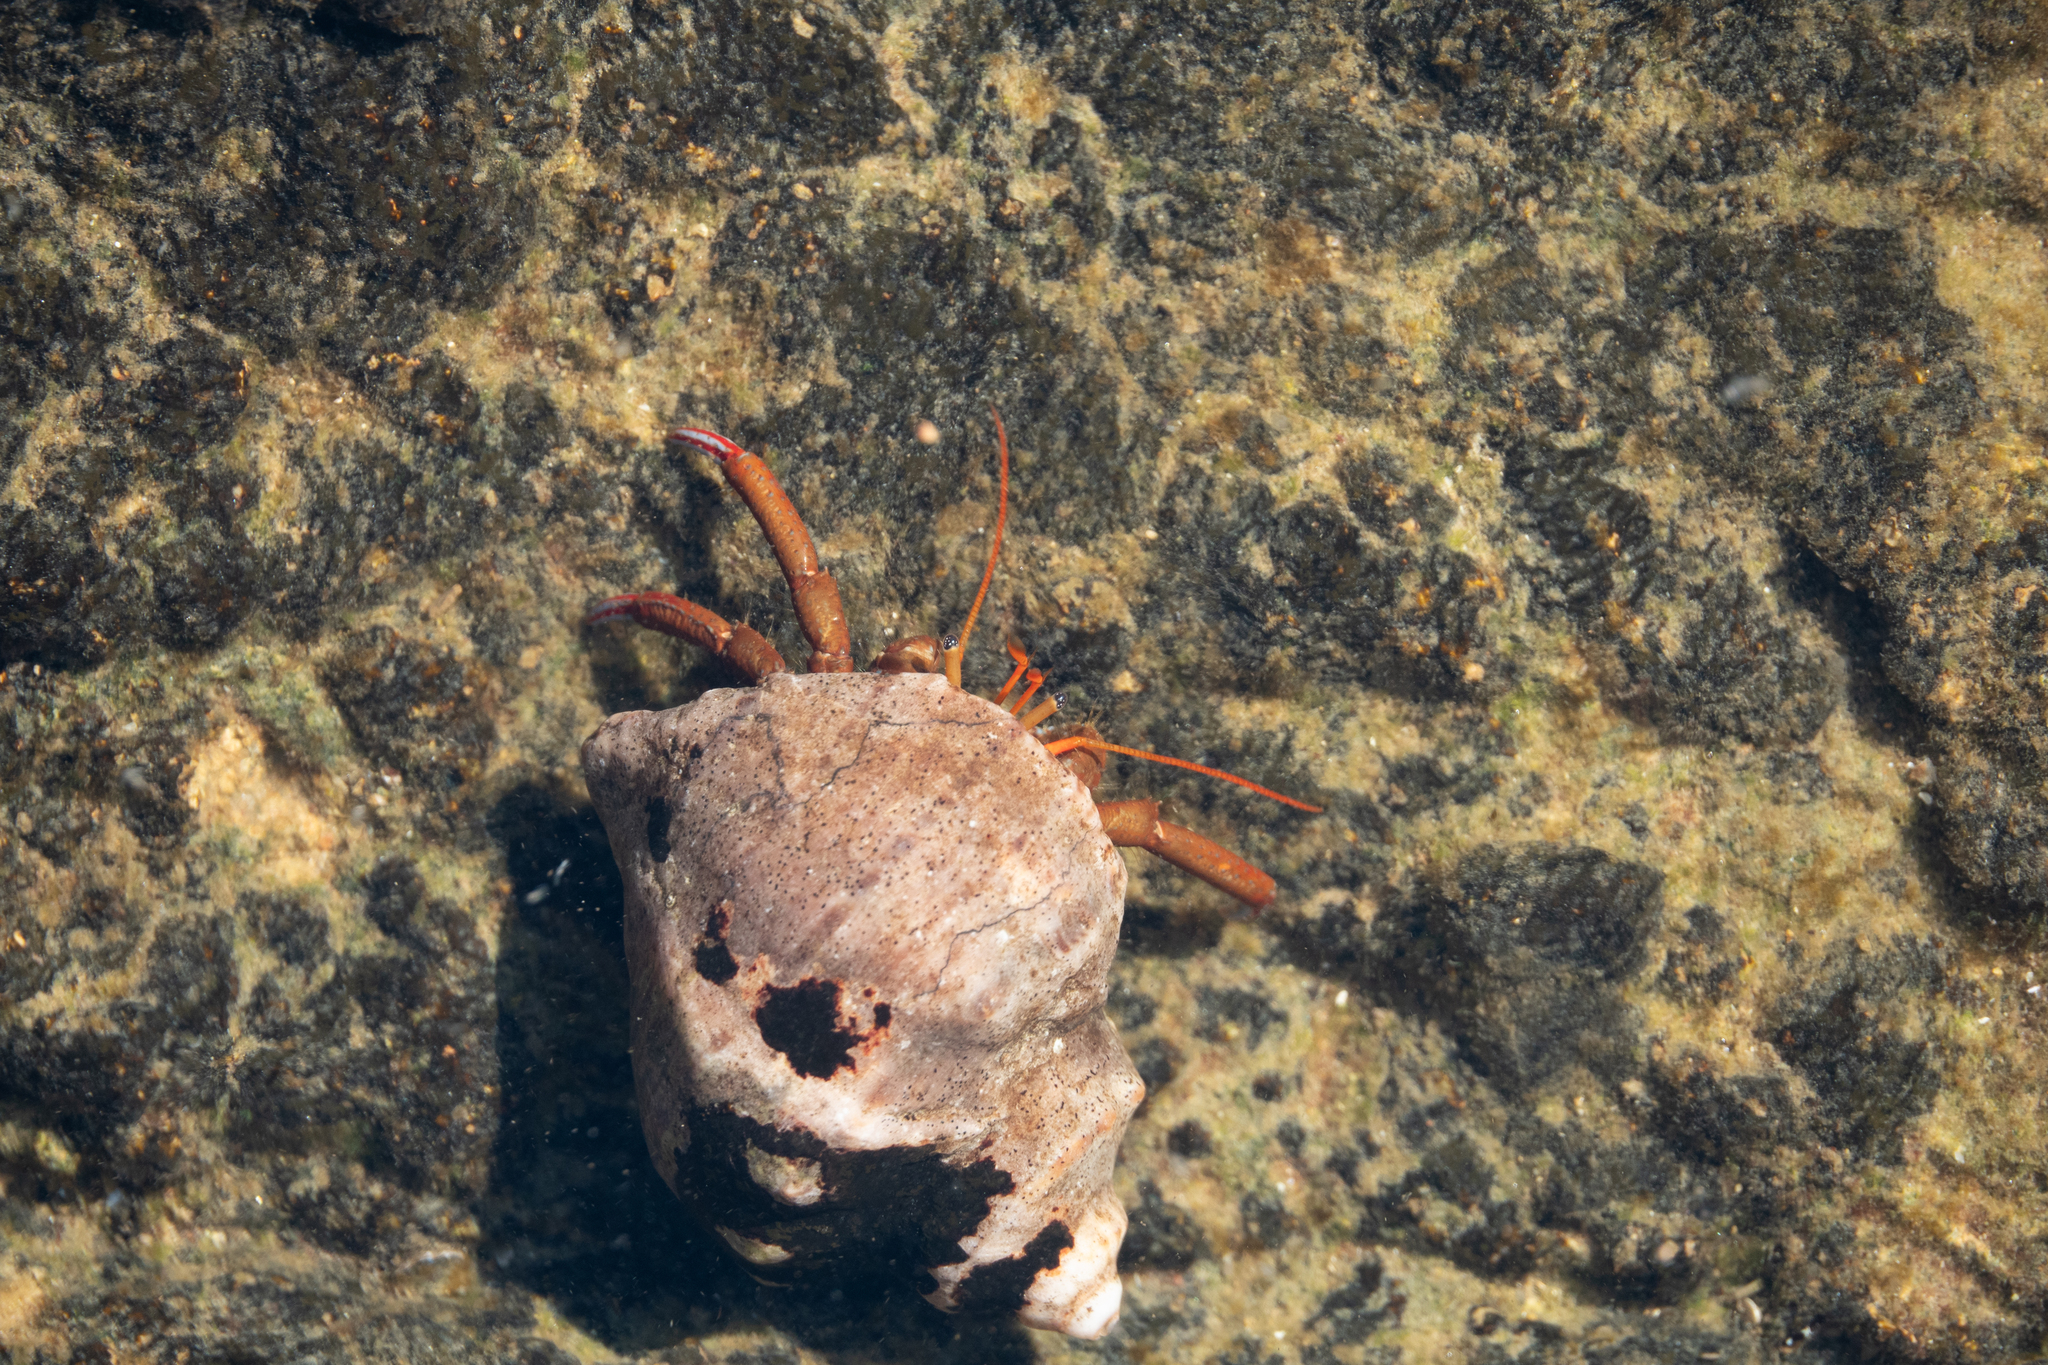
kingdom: Animalia
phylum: Arthropoda
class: Malacostraca
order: Decapoda
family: Diogenidae
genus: Clibanarius
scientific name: Clibanarius erythropus
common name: Hermit crab
